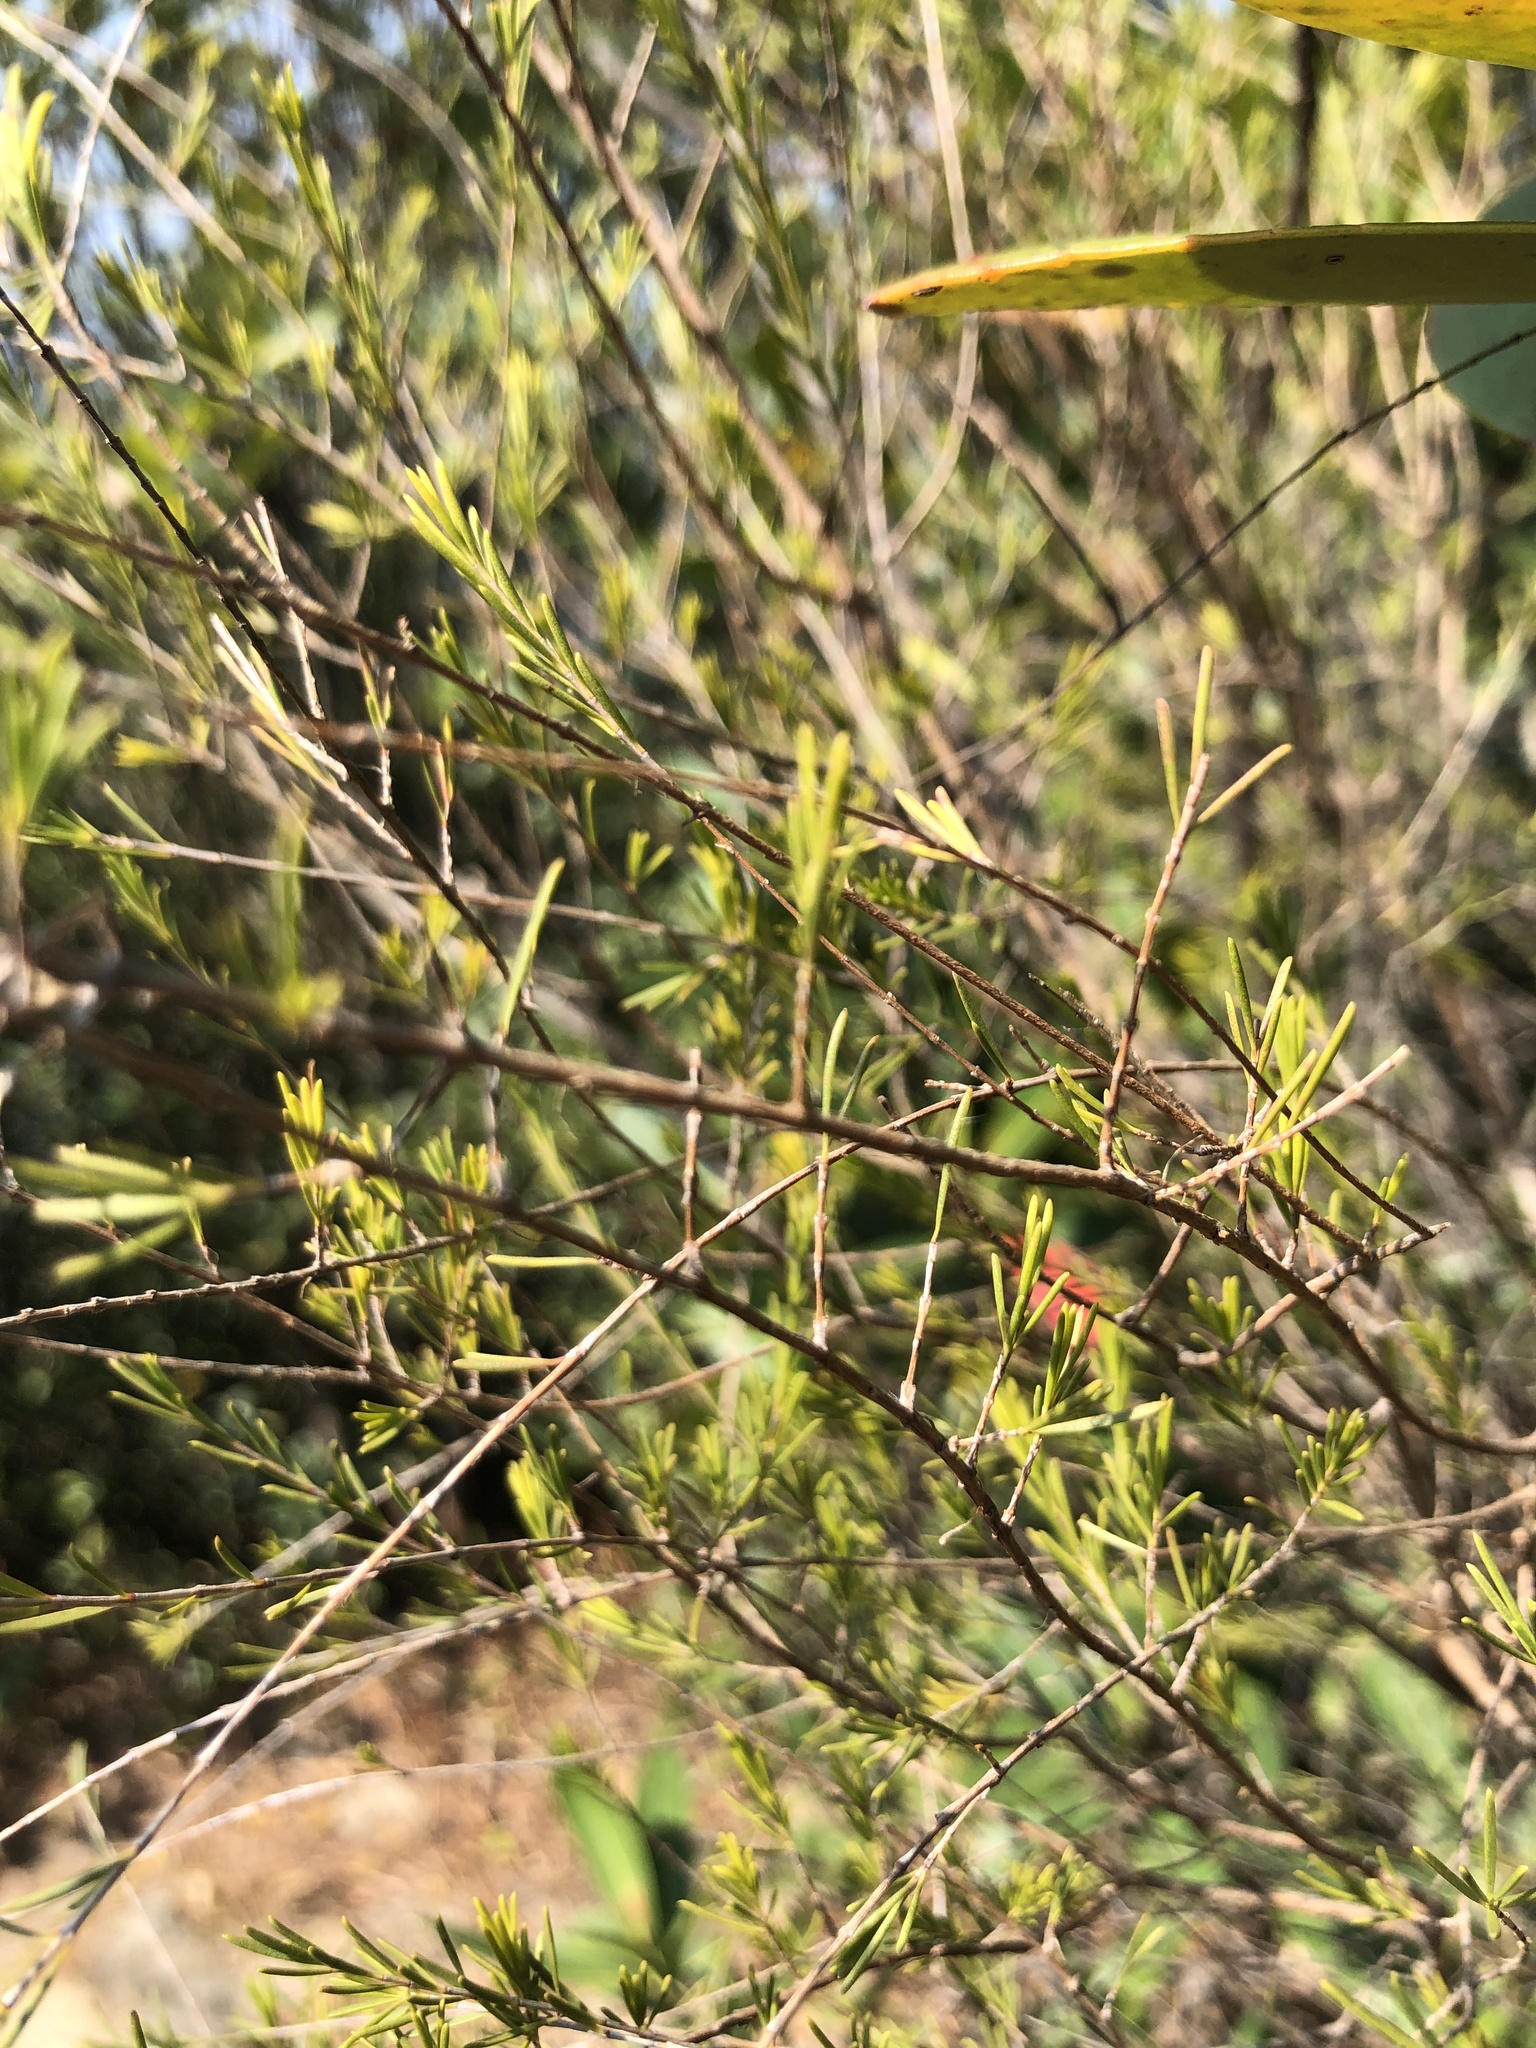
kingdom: Plantae
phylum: Tracheophyta
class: Magnoliopsida
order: Myrtales
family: Myrtaceae
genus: Baeckea
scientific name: Baeckea frutescens
